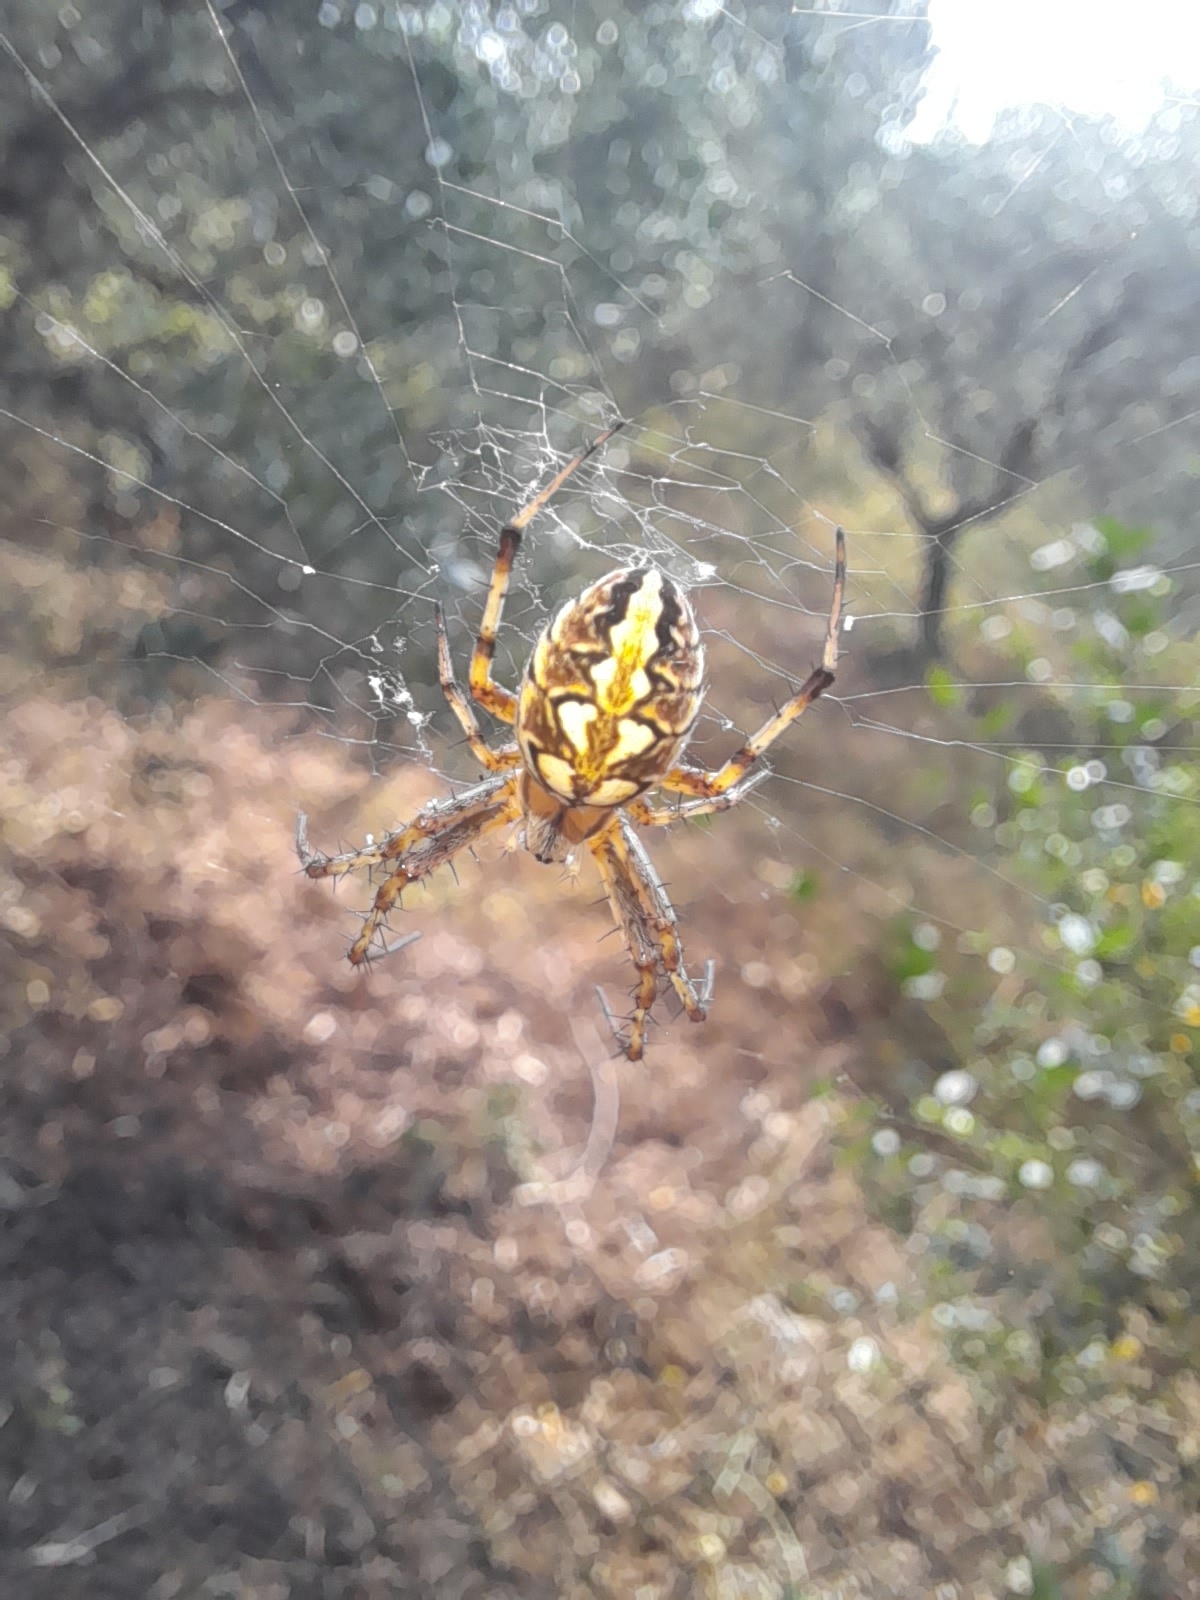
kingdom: Animalia
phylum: Arthropoda
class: Arachnida
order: Araneae
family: Araneidae
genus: Neoscona
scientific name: Neoscona adianta
